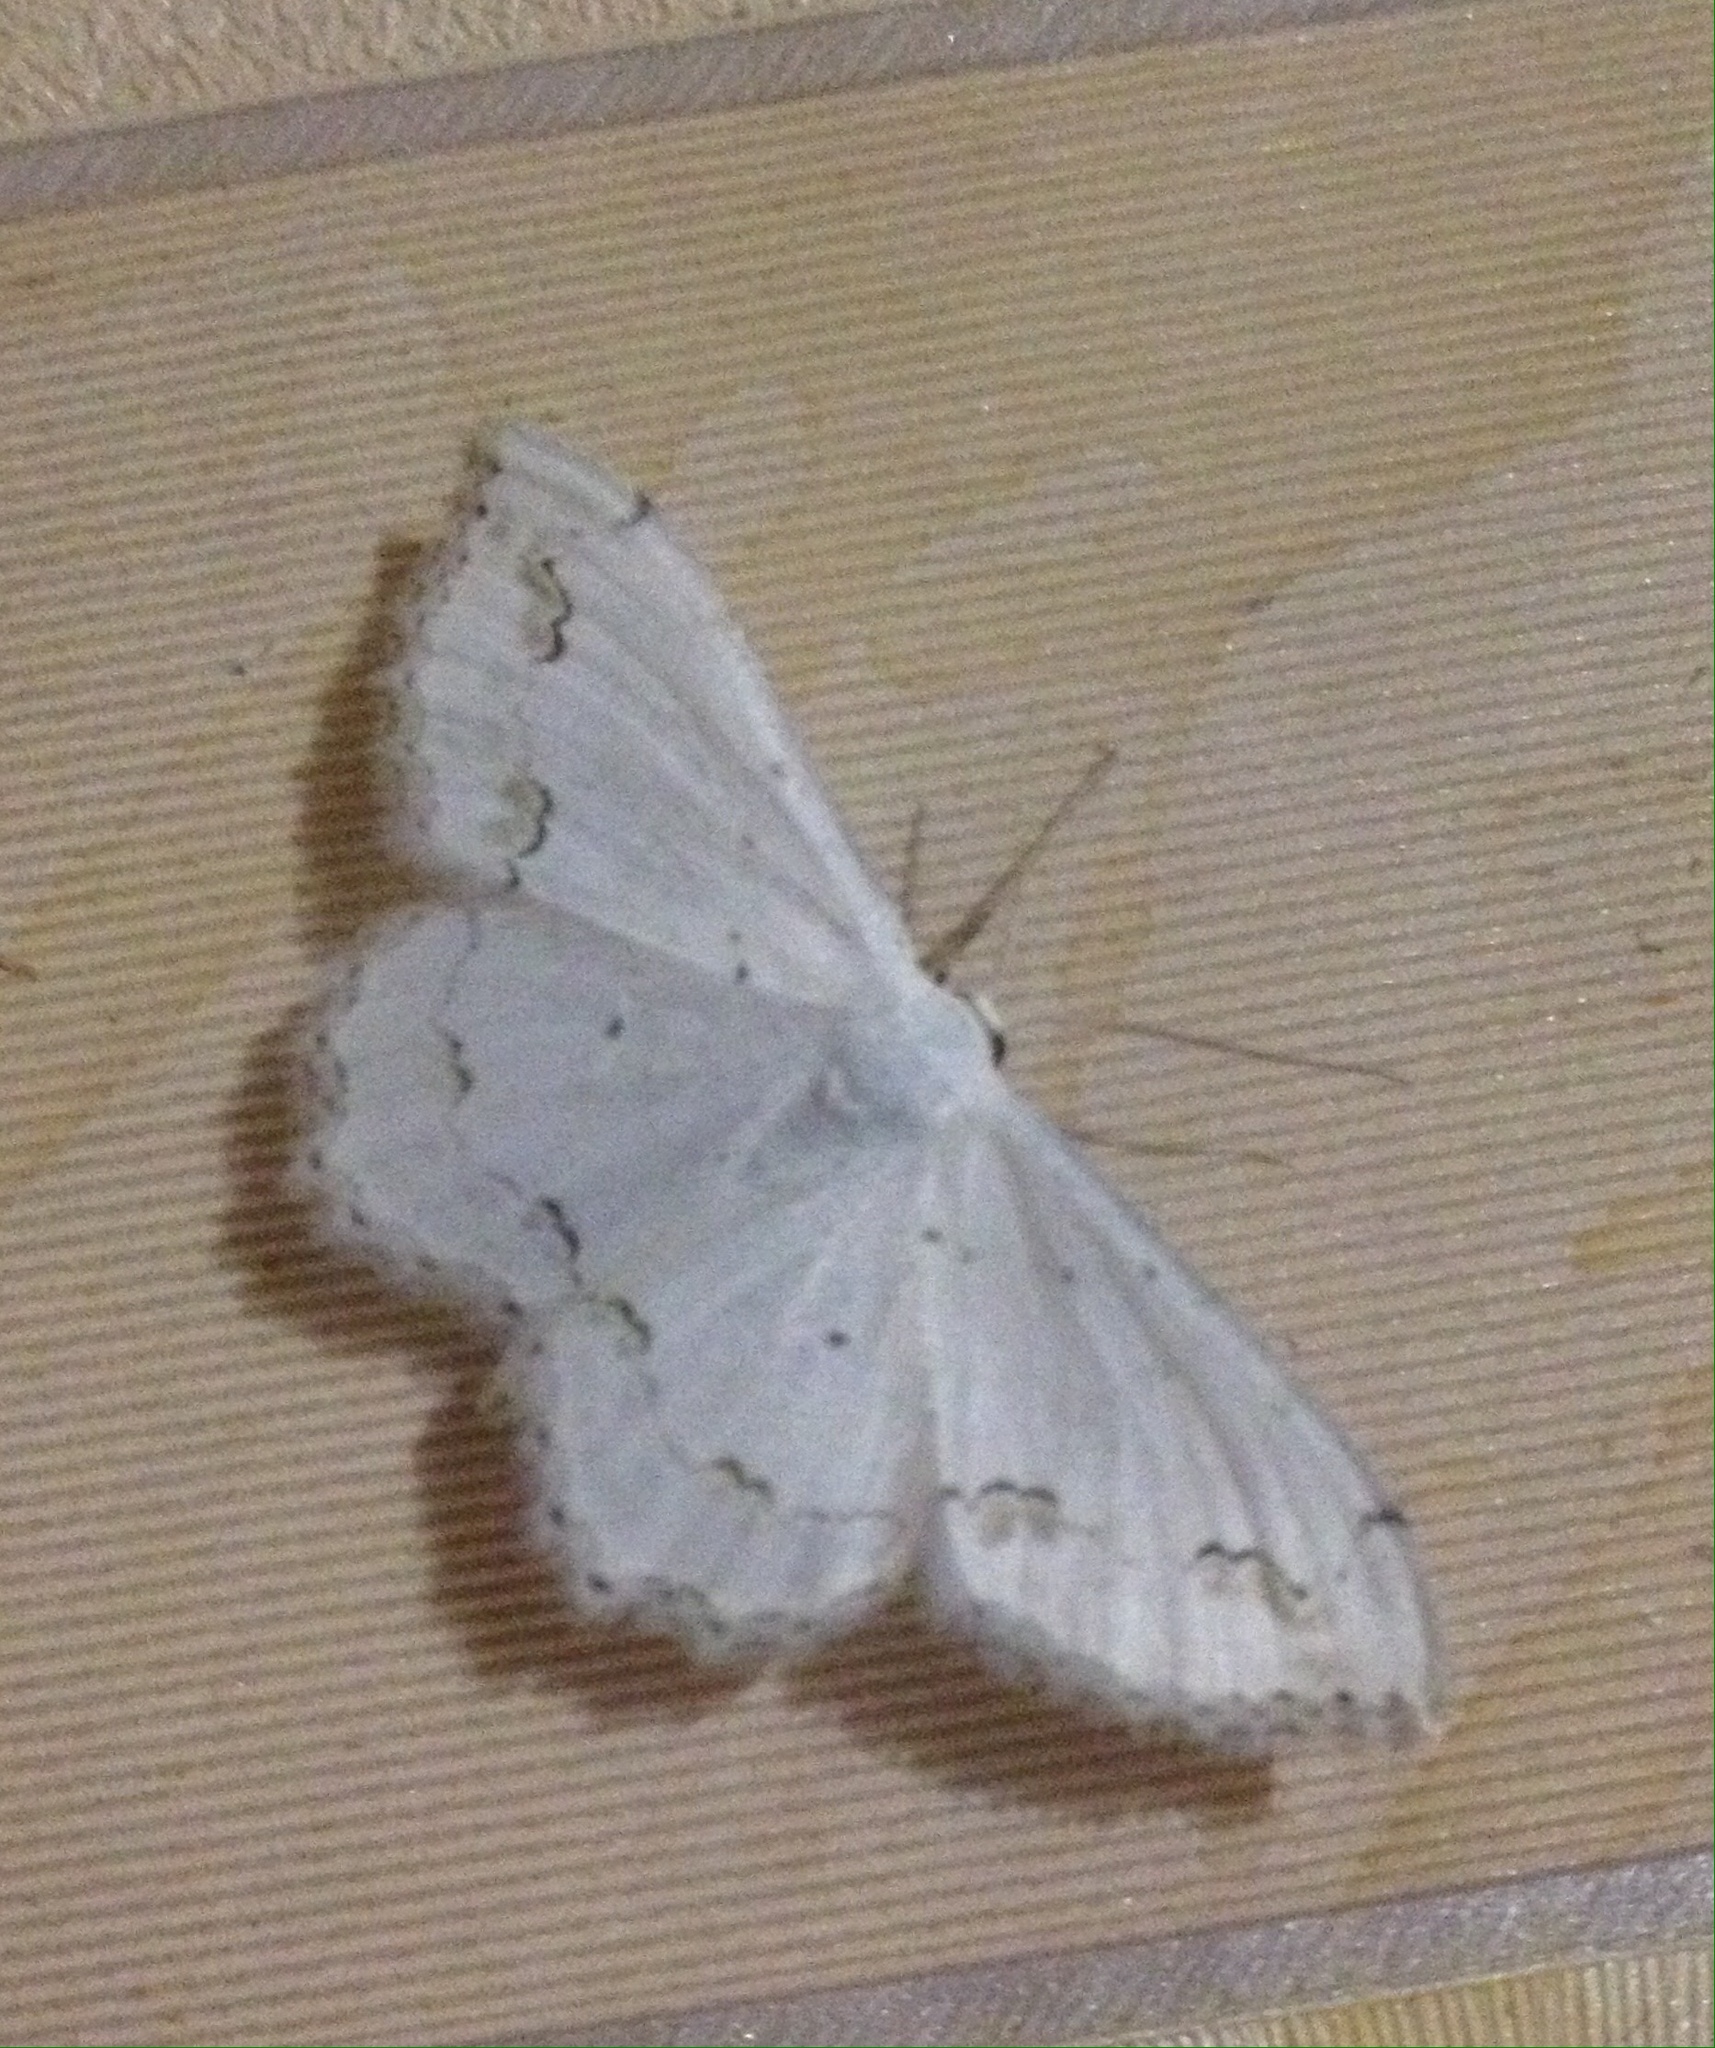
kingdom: Animalia
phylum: Arthropoda
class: Insecta
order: Lepidoptera
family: Geometridae
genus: Scopula
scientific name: Scopula ornata
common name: Lace border
